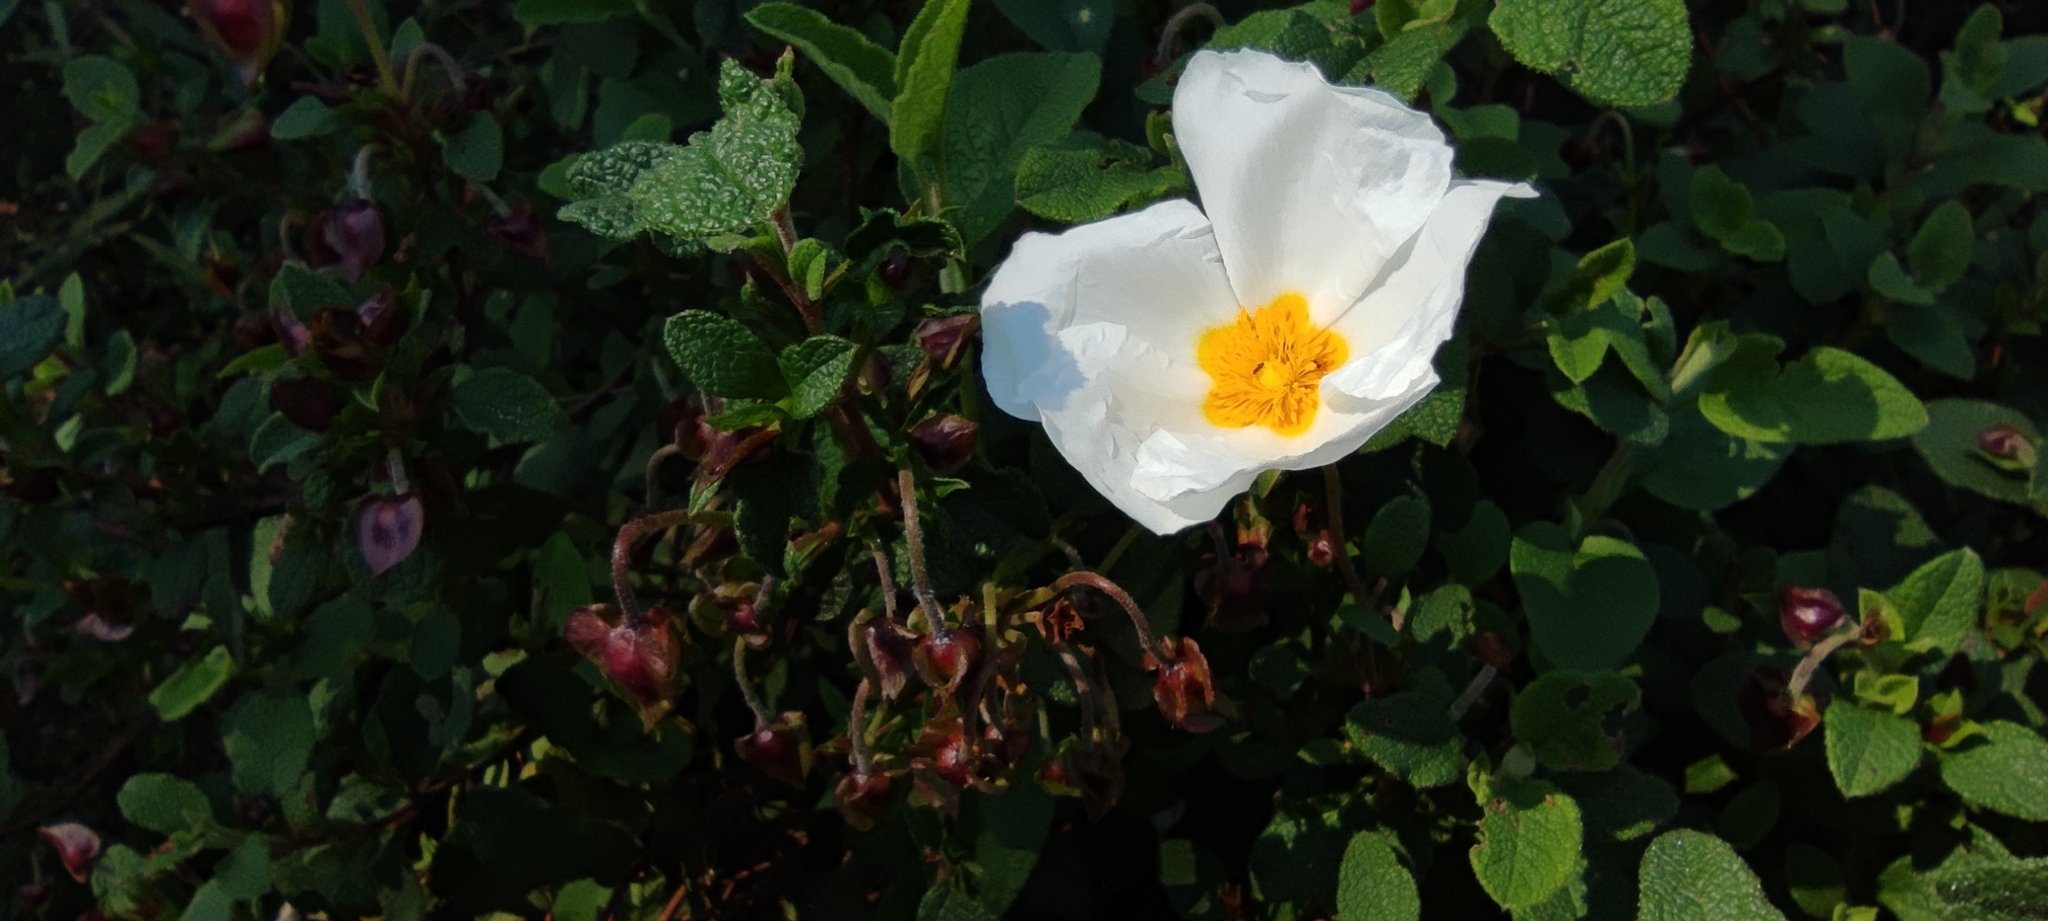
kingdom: Plantae
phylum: Tracheophyta
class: Magnoliopsida
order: Malvales
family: Cistaceae
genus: Cistus
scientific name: Cistus salviifolius
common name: Salvia cistus
